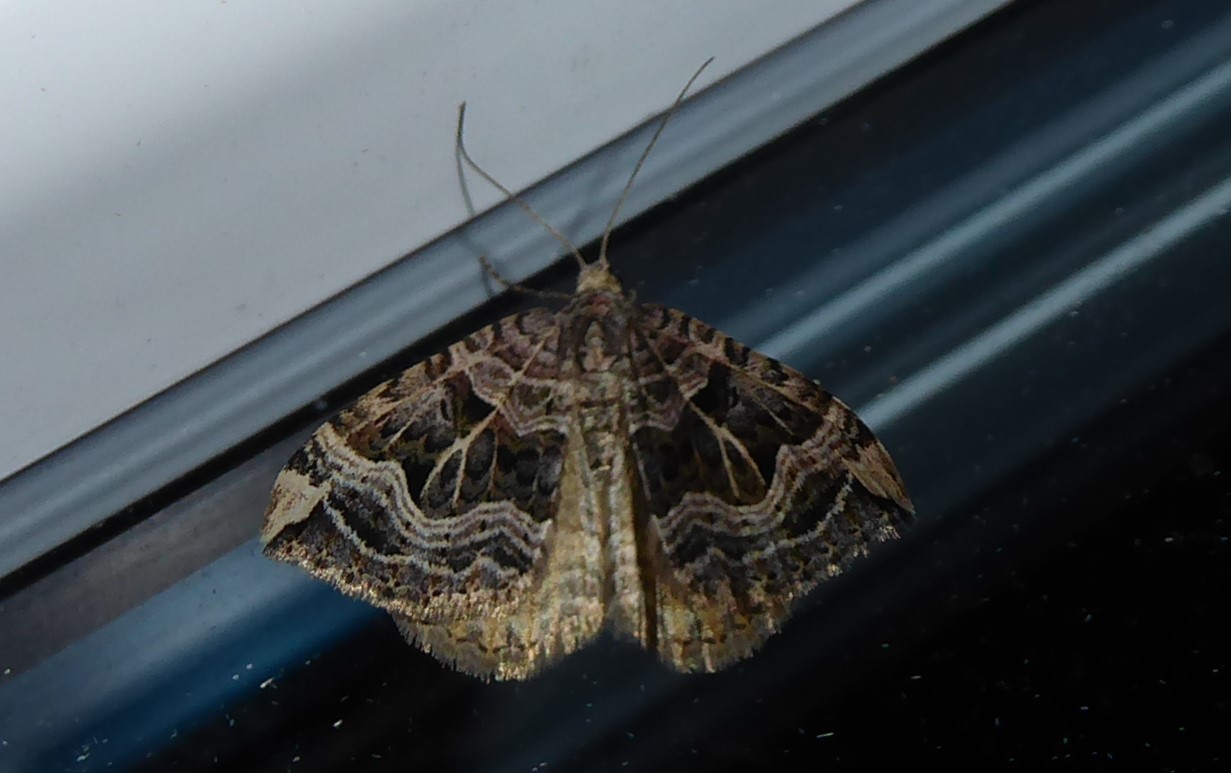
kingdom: Animalia
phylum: Arthropoda
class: Insecta
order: Lepidoptera
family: Geometridae
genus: Xanthorhoe
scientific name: Xanthorhoe semifissata
